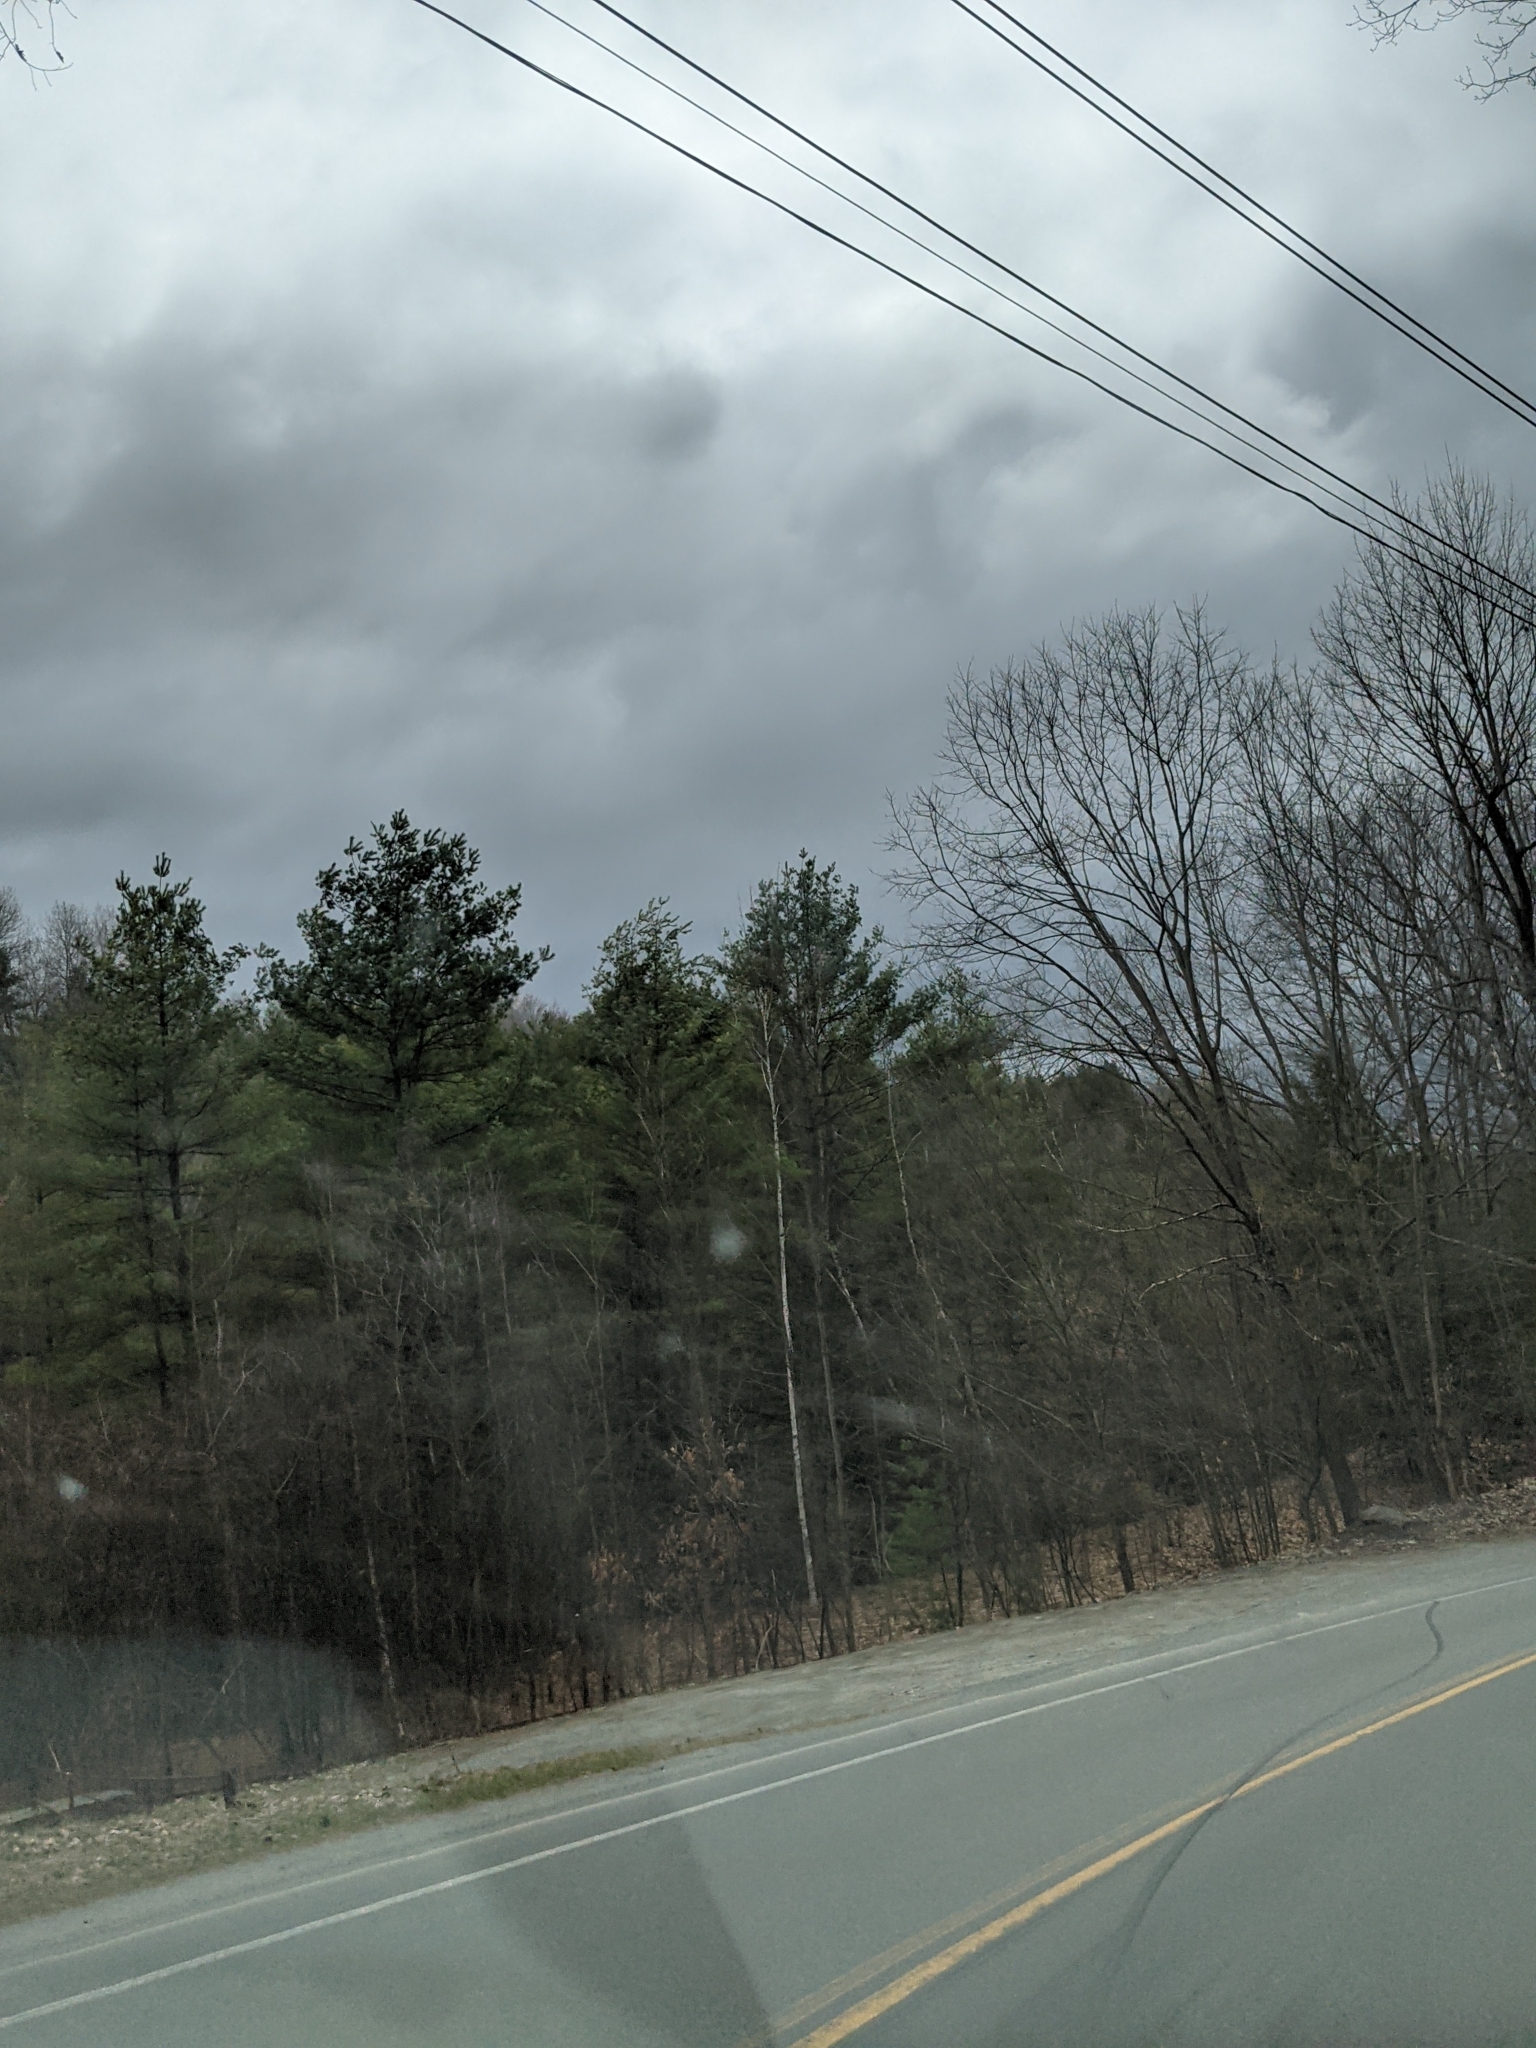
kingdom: Plantae
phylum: Tracheophyta
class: Pinopsida
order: Pinales
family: Pinaceae
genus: Pinus
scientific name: Pinus strobus
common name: Weymouth pine
